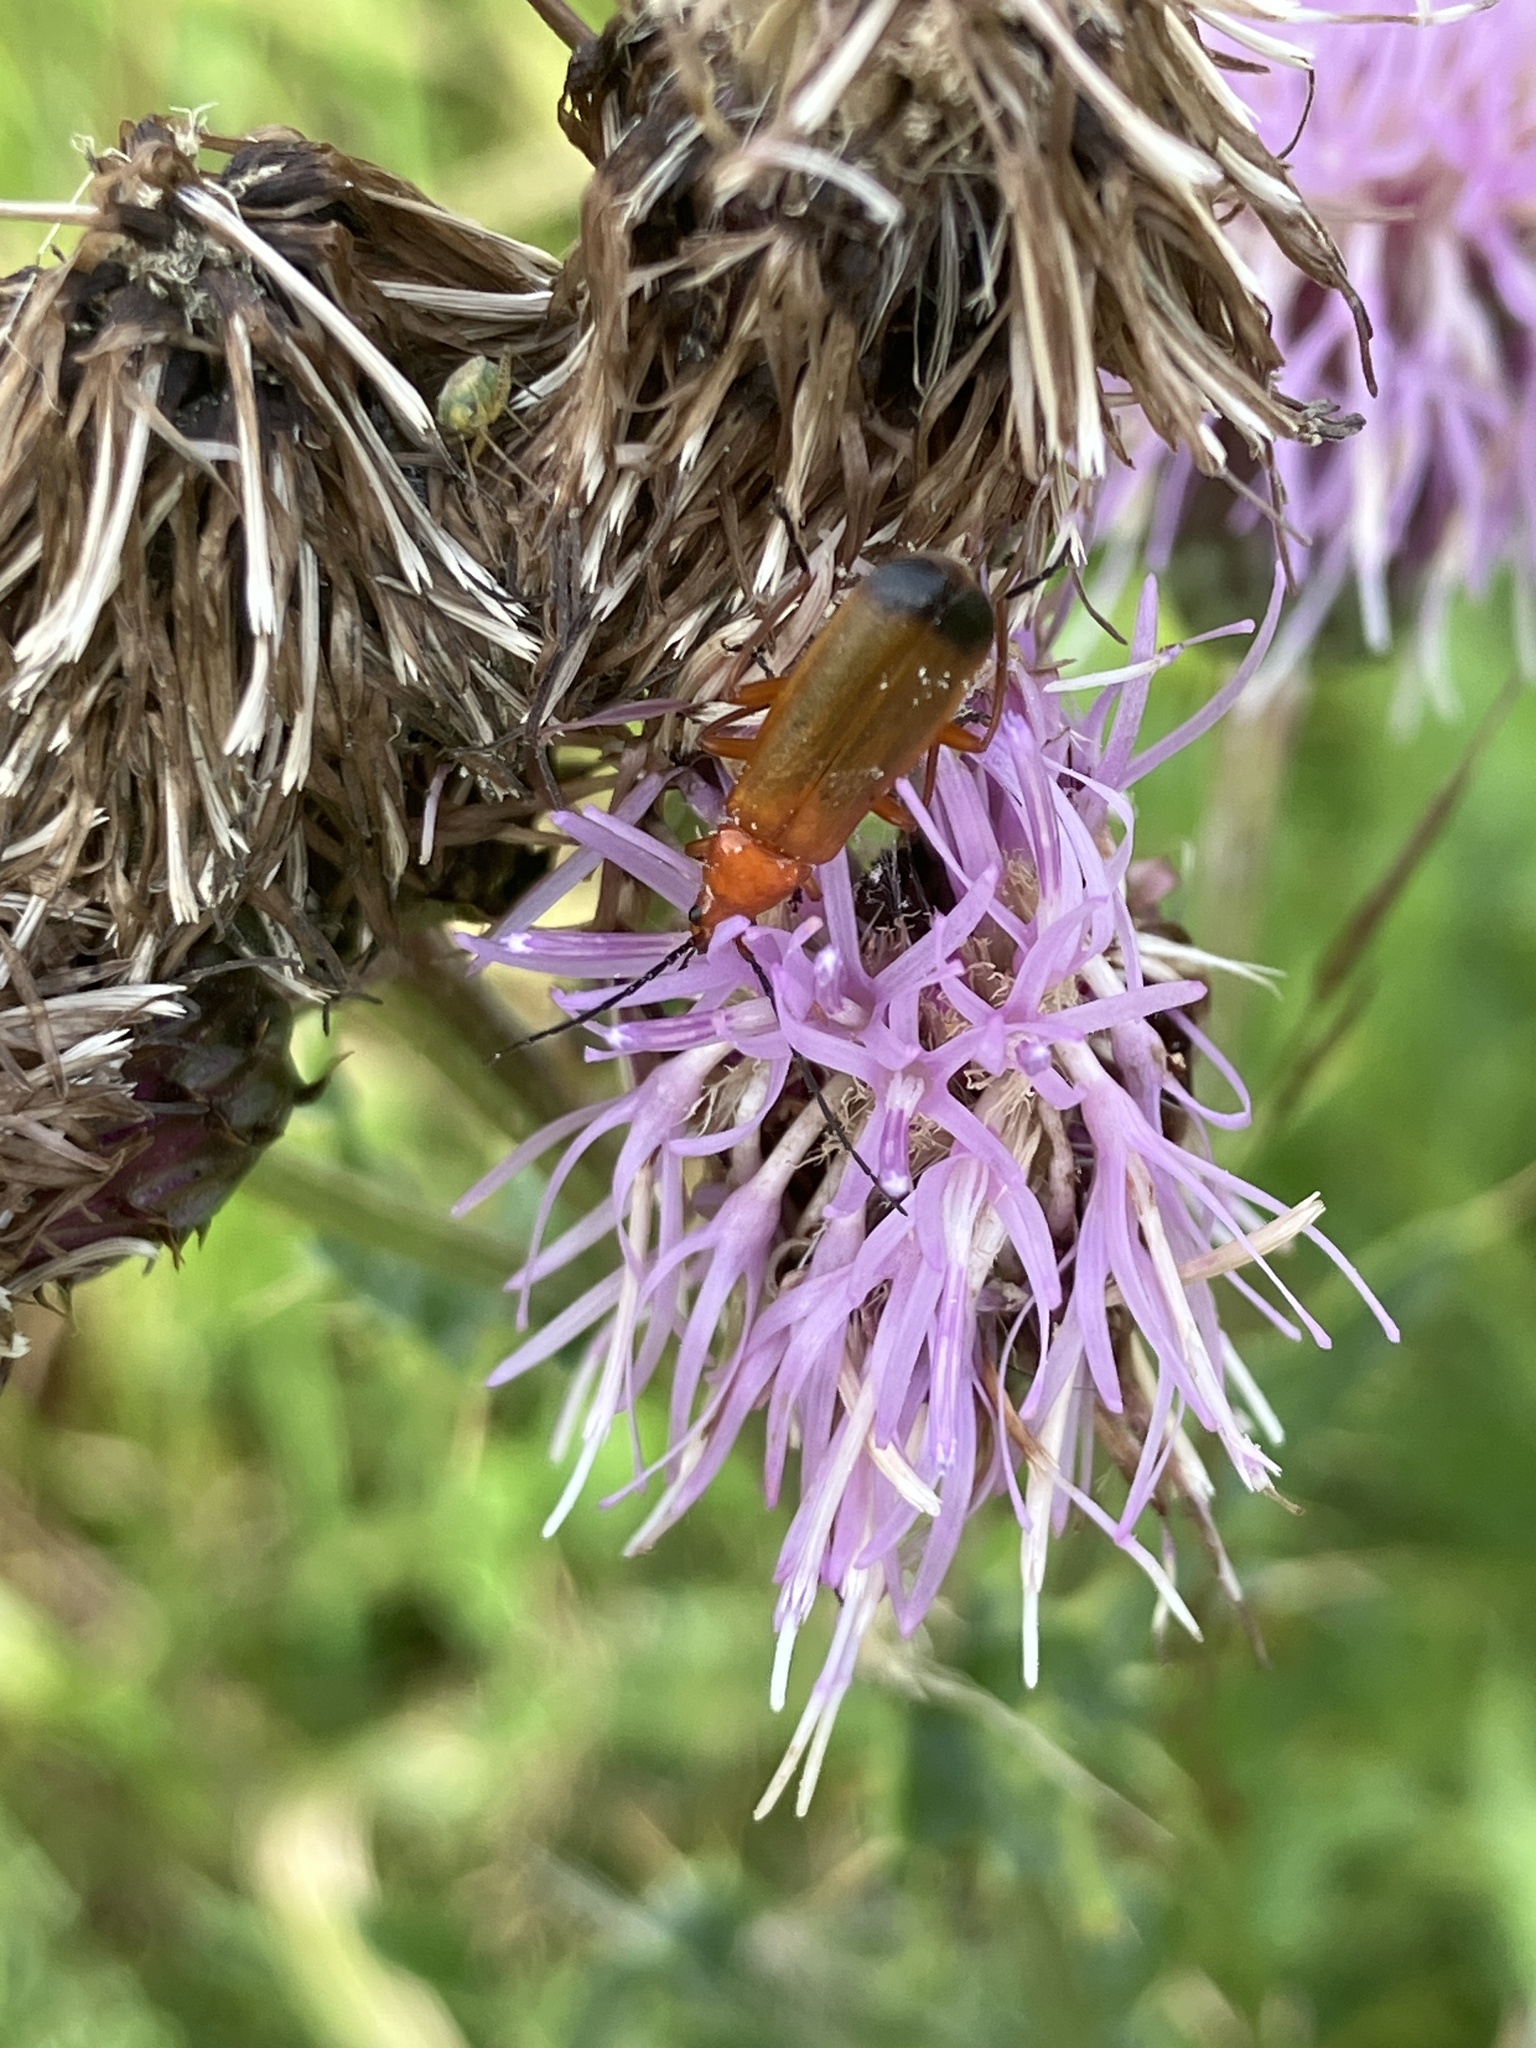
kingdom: Animalia
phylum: Arthropoda
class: Insecta
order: Coleoptera
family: Cantharidae
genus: Rhagonycha
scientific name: Rhagonycha fulva
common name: Common red soldier beetle
